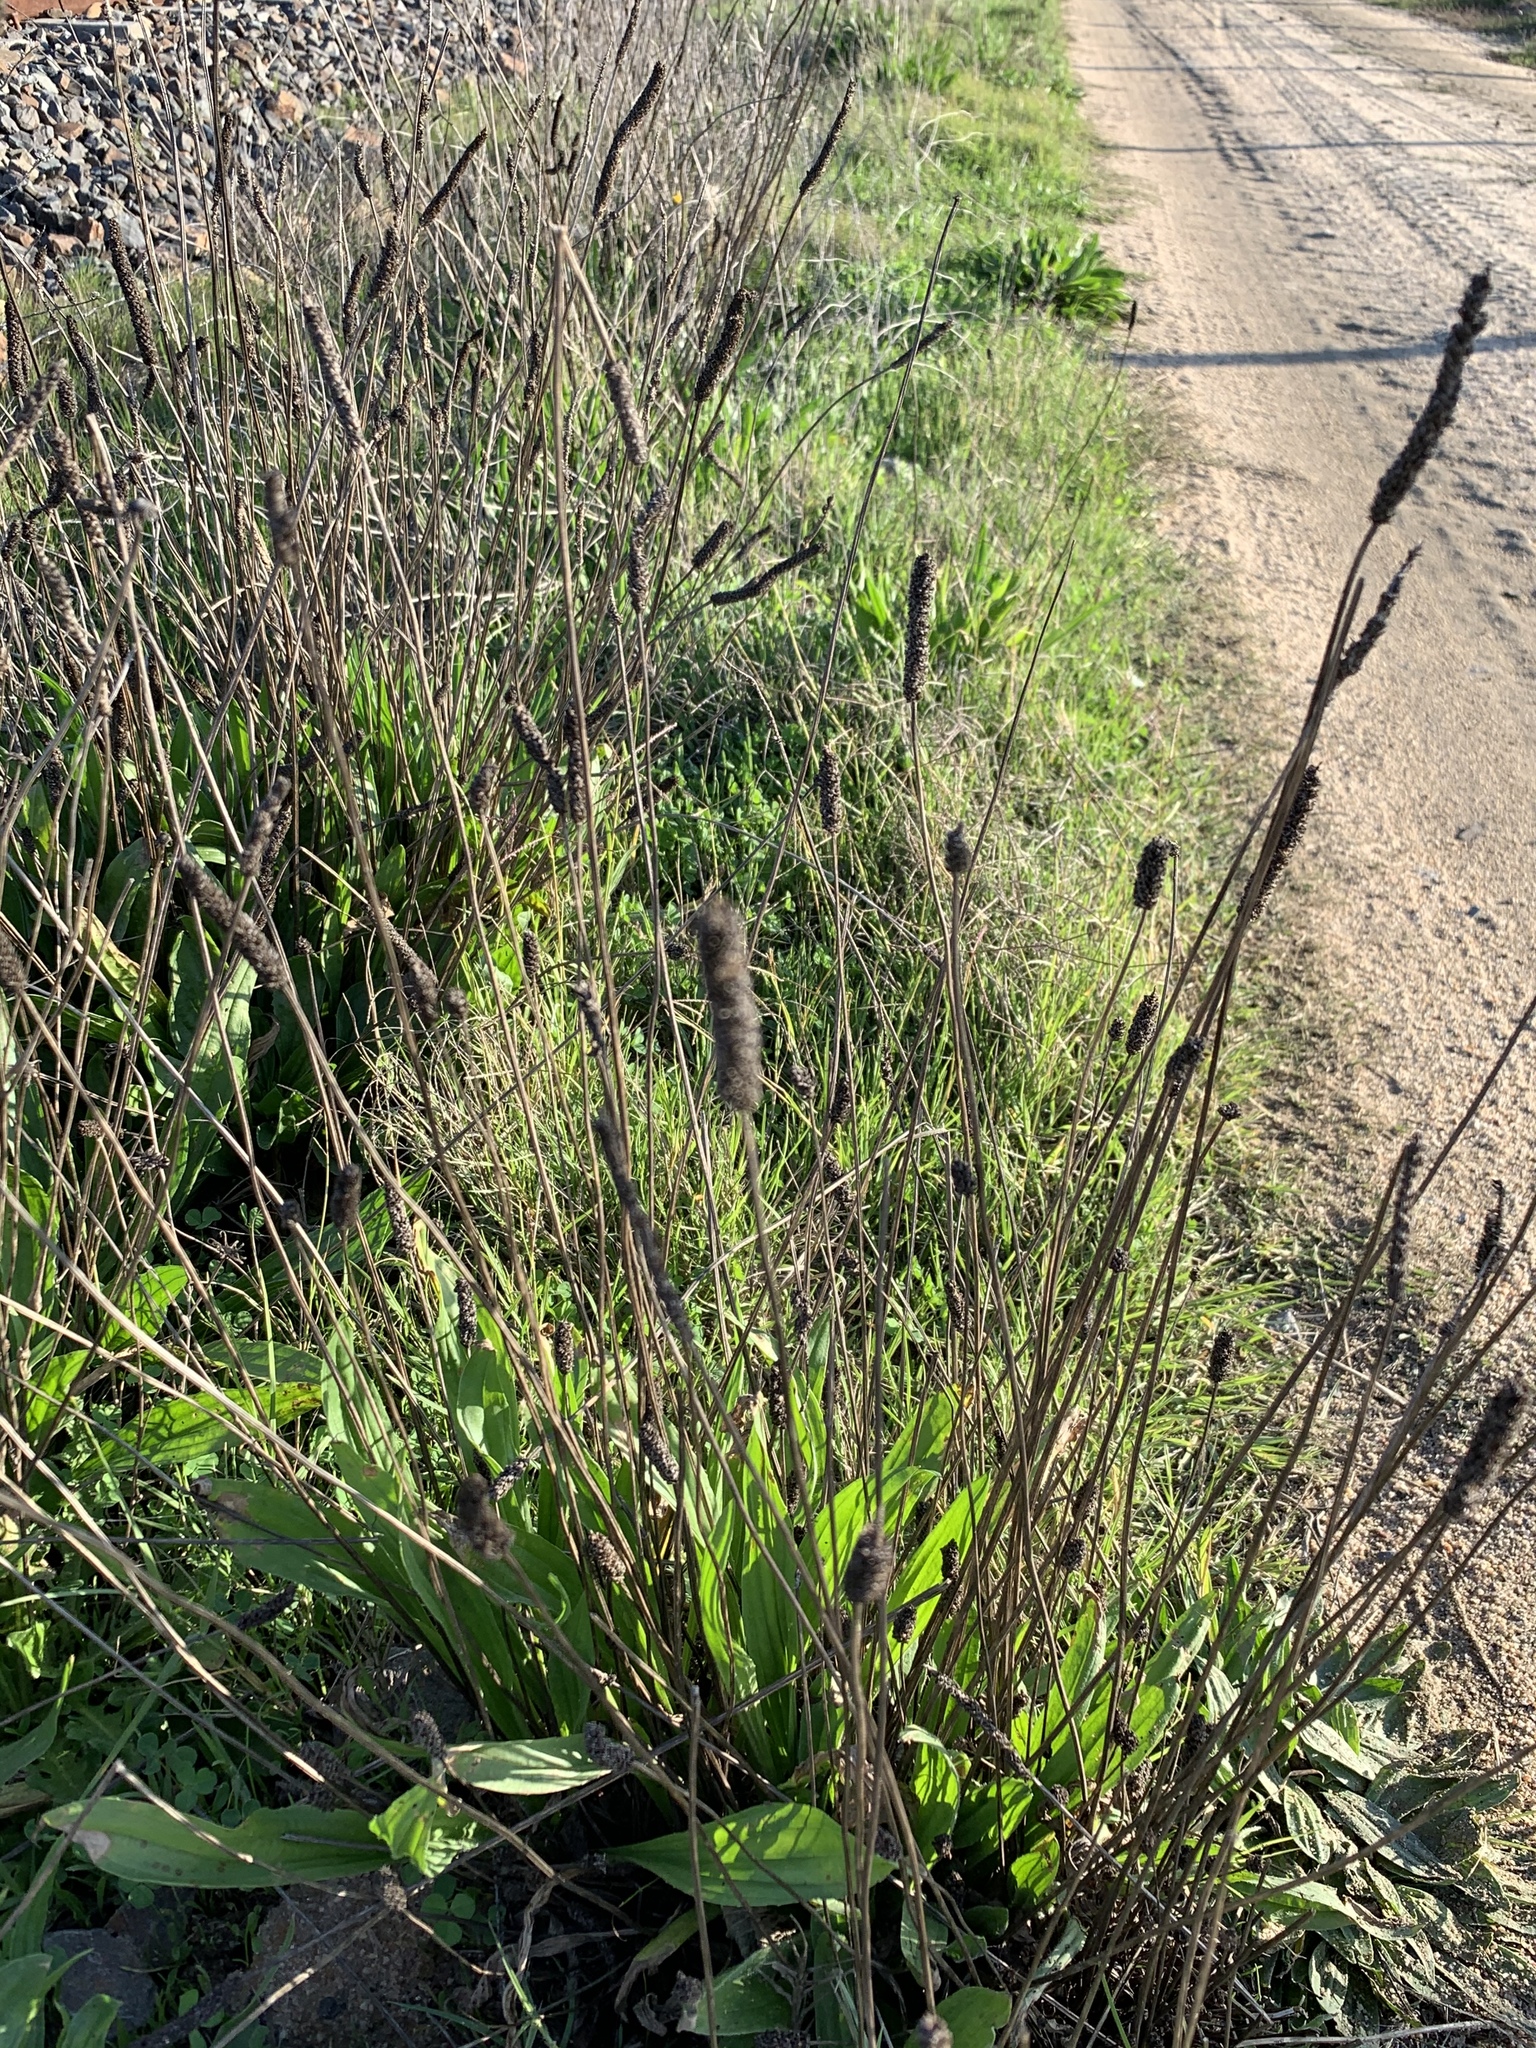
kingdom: Plantae
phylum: Tracheophyta
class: Magnoliopsida
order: Lamiales
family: Plantaginaceae
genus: Plantago
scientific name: Plantago lanceolata
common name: Ribwort plantain
